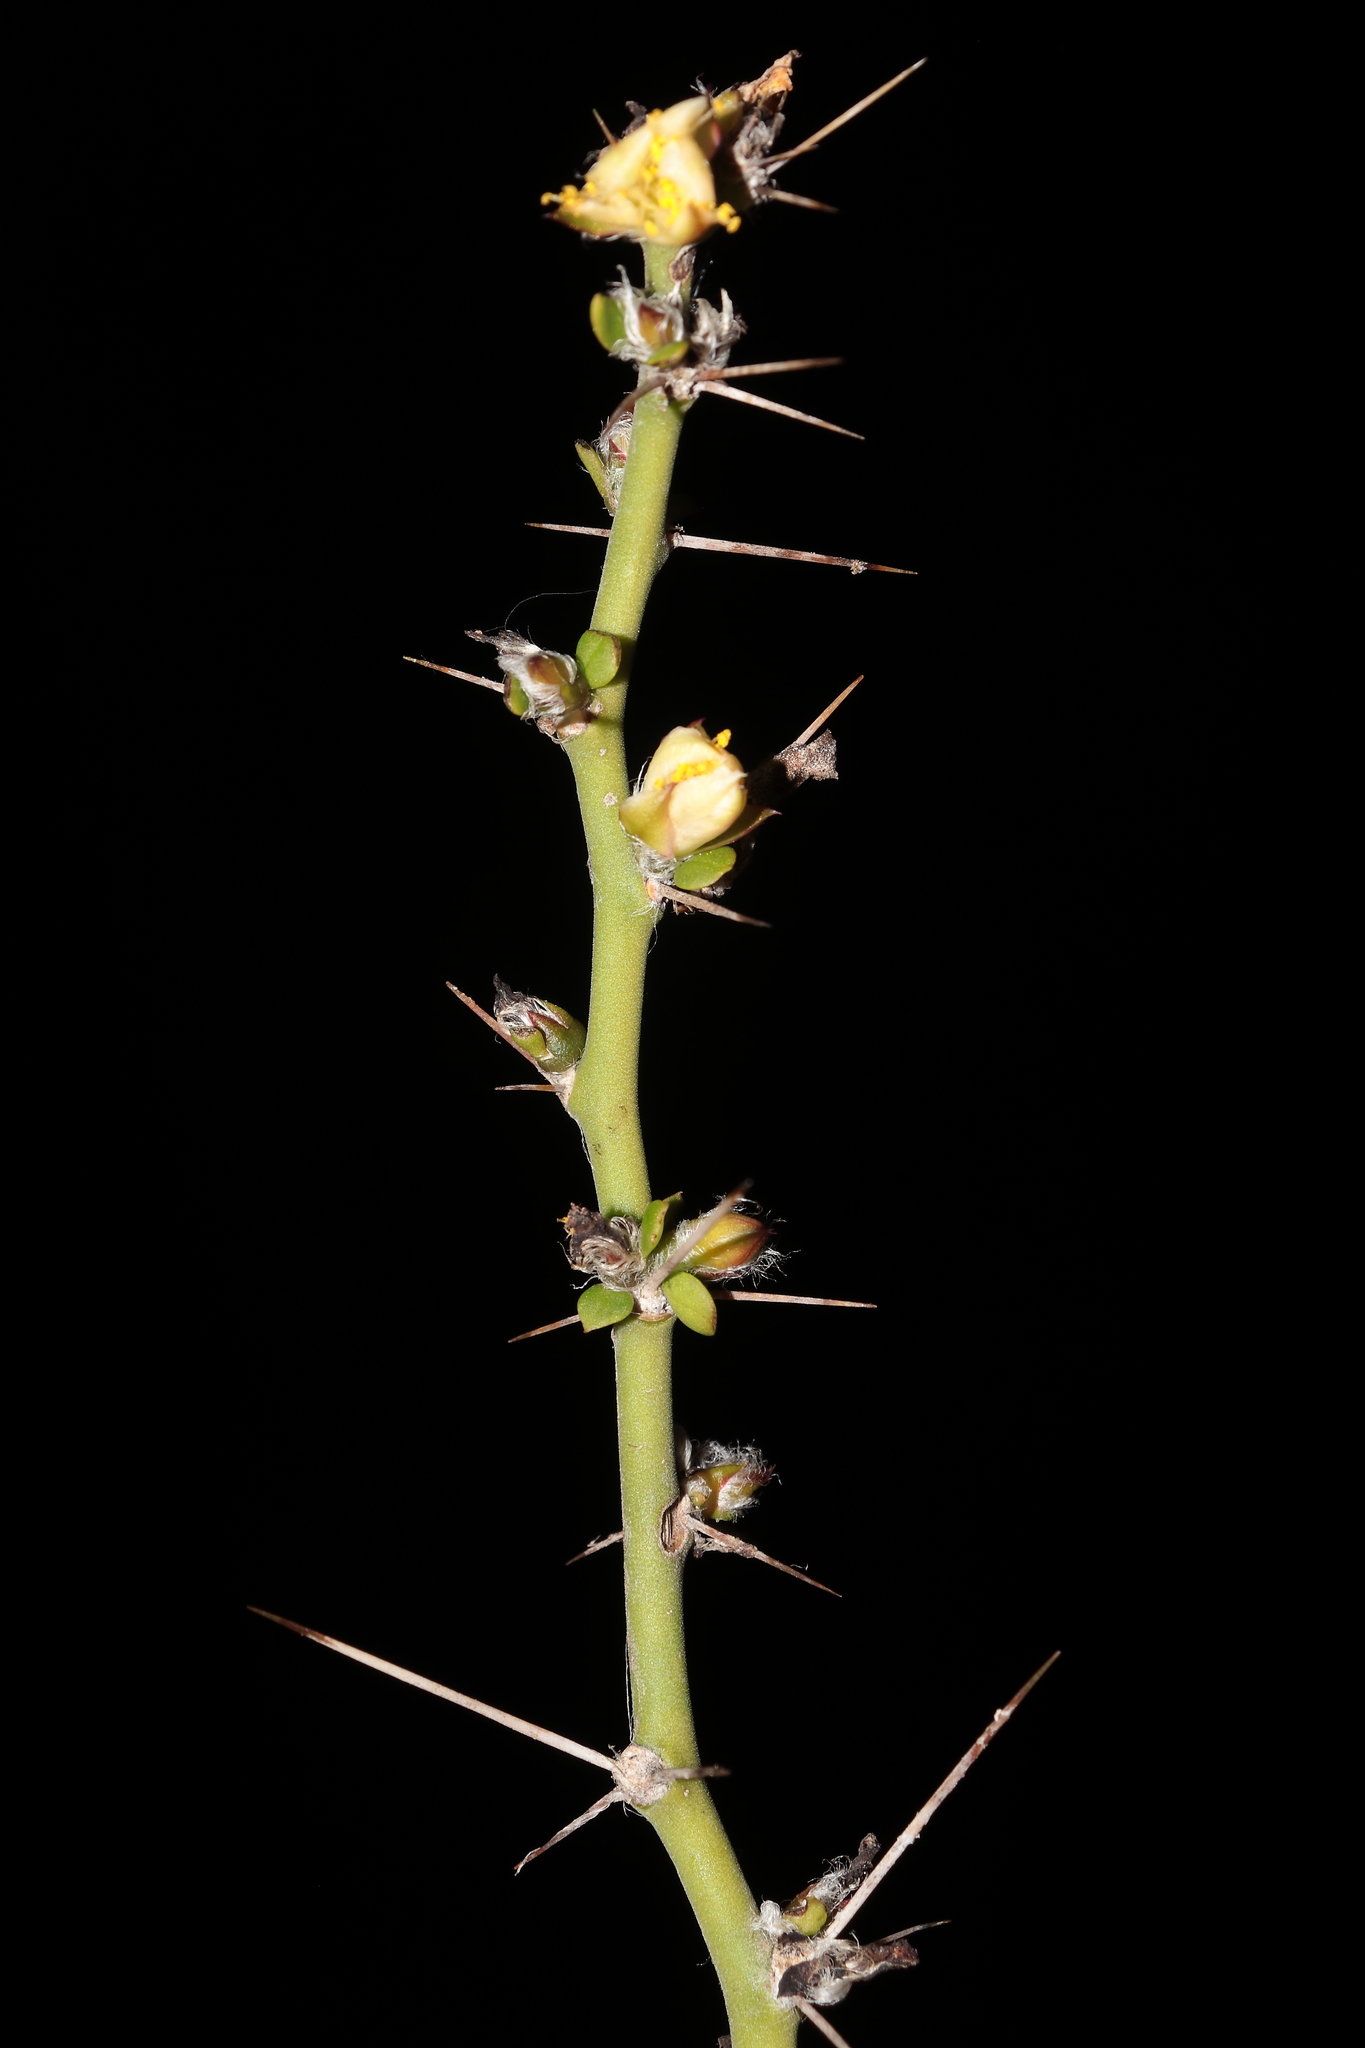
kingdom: Plantae
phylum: Tracheophyta
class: Magnoliopsida
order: Caryophyllales
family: Cactaceae
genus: Pereskia
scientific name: Pereskia horrida
